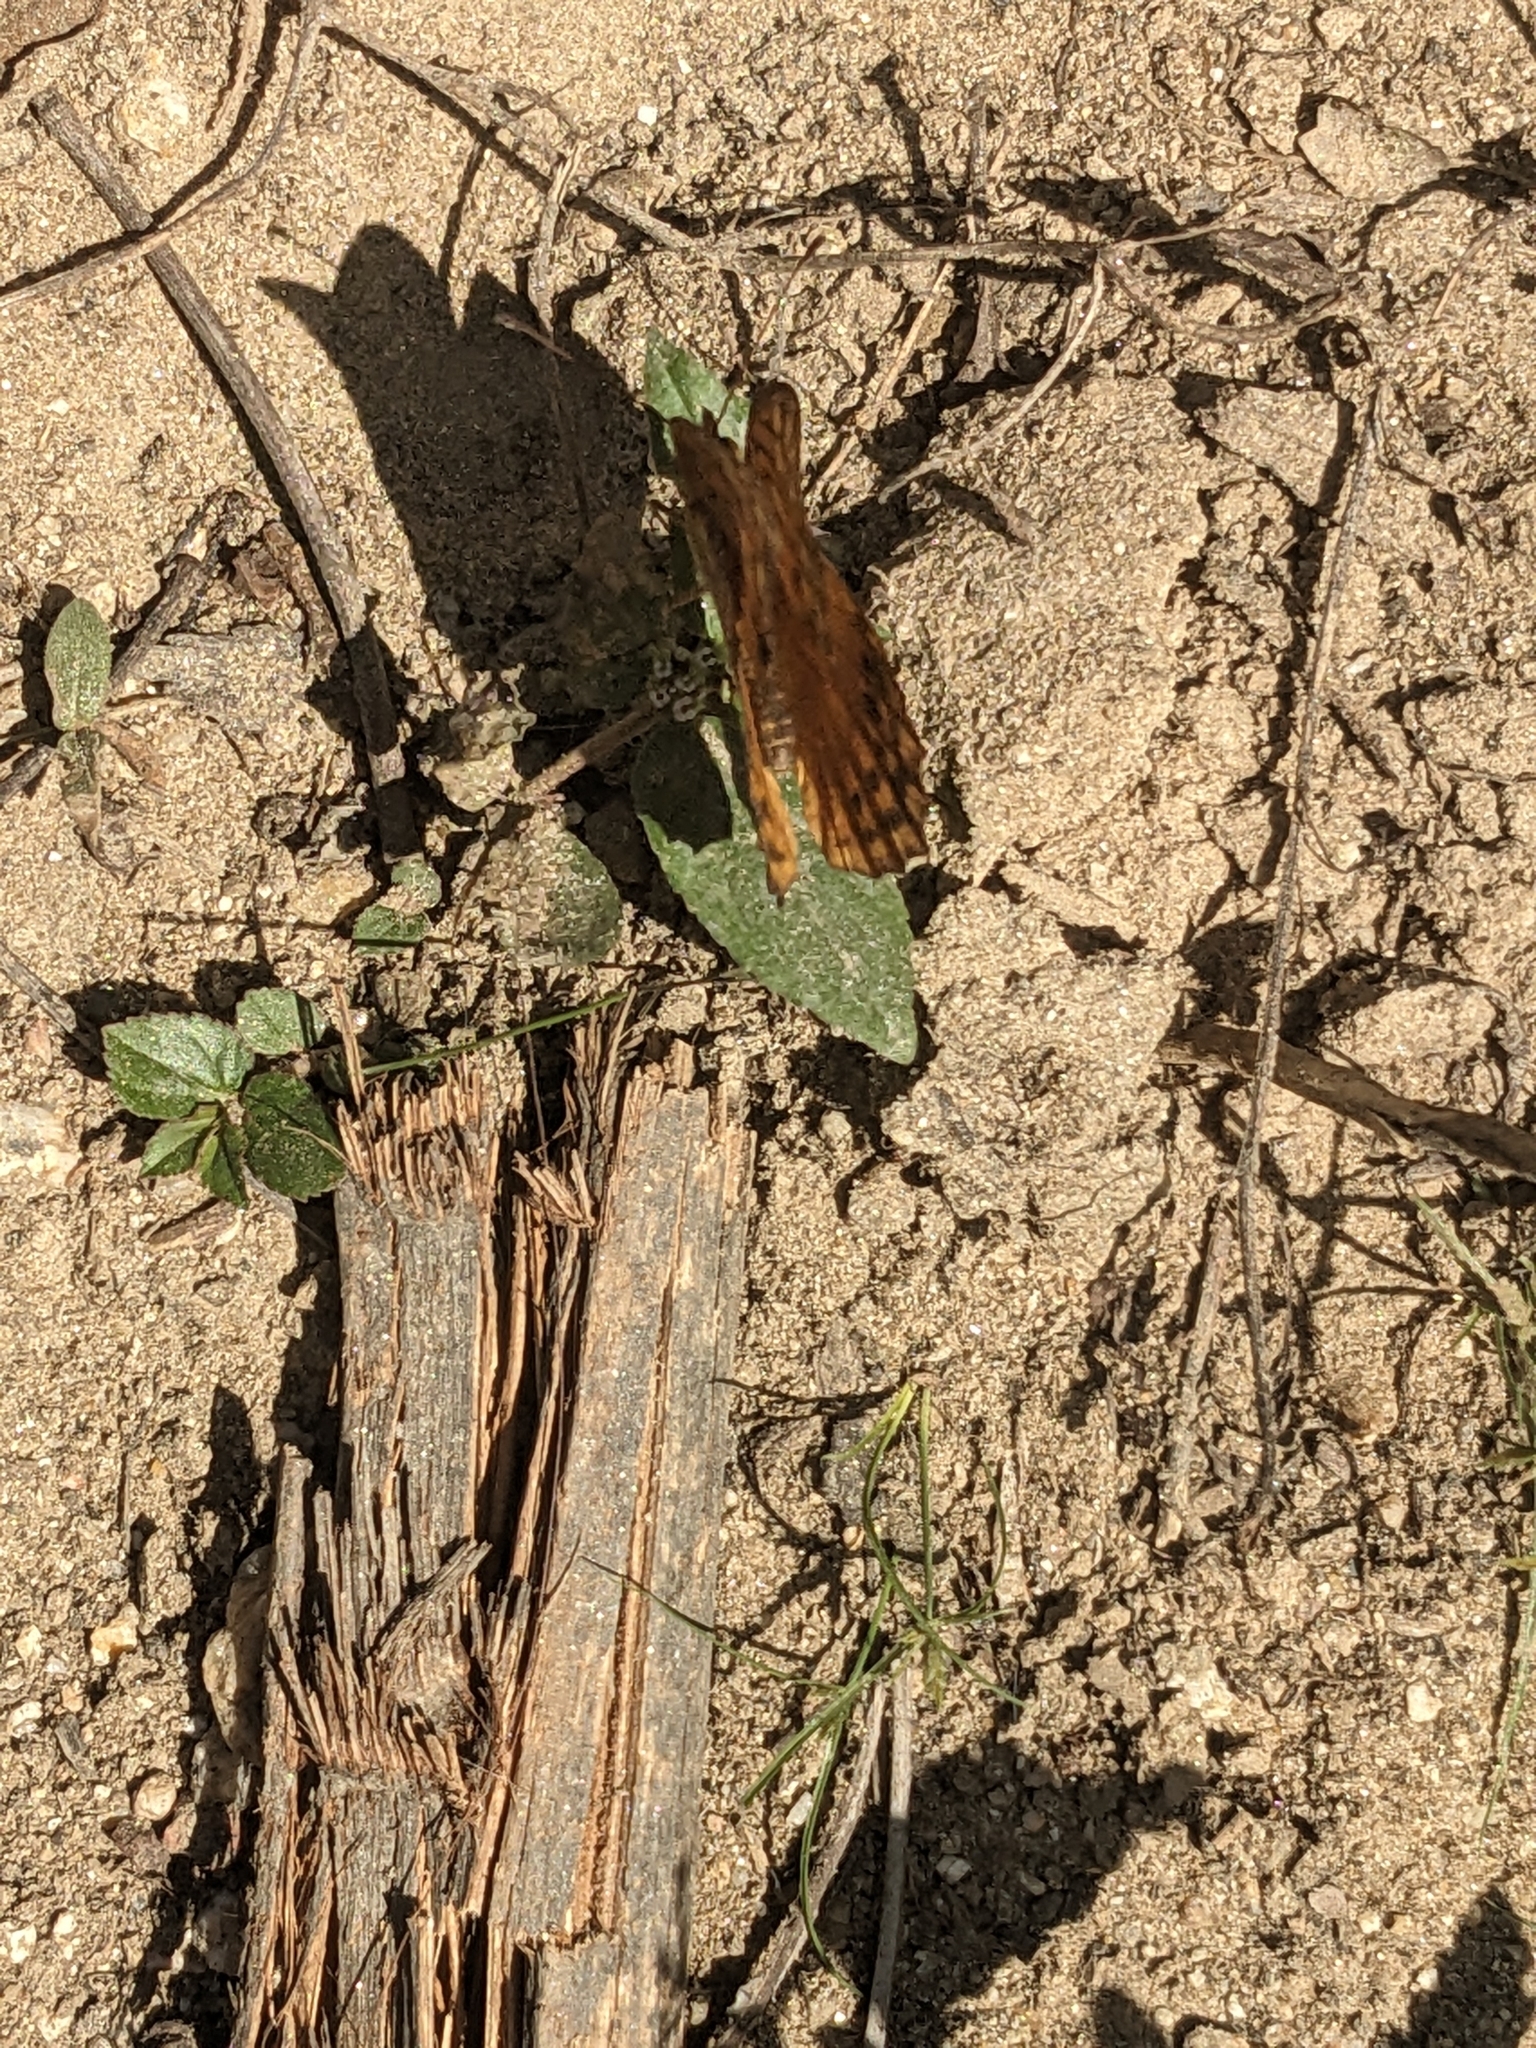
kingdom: Animalia
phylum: Arthropoda
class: Insecta
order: Lepidoptera
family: Nymphalidae
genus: Euptoieta
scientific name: Euptoieta hegesia
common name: Mexican fritillary
